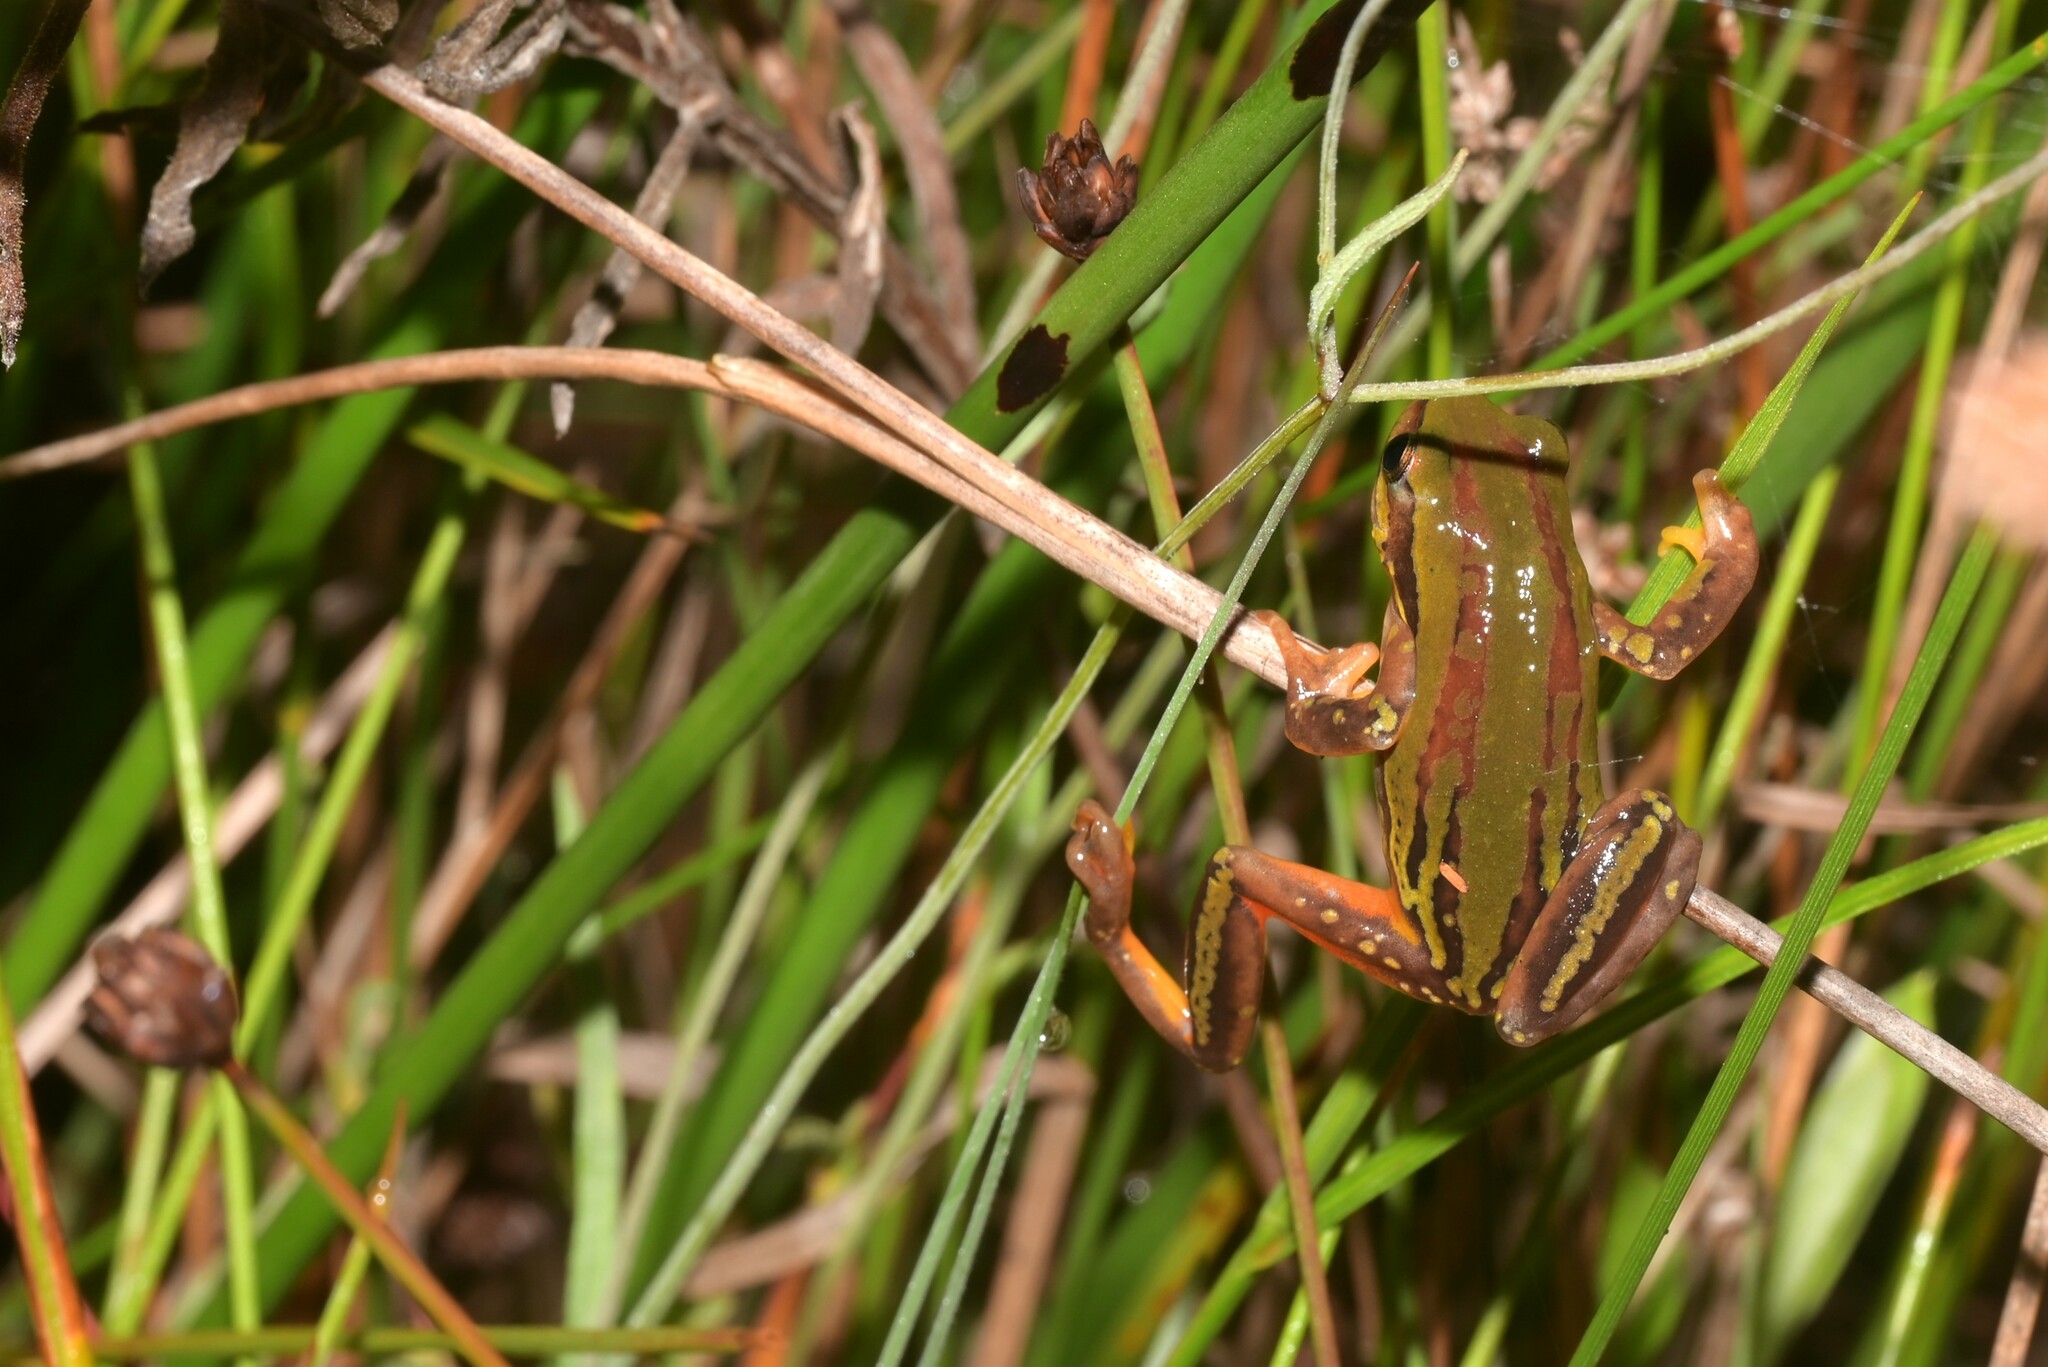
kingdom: Animalia
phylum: Chordata
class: Amphibia
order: Anura
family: Hyperoliidae
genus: Hyperolius
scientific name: Hyperolius pictus
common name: Variable reed frog
